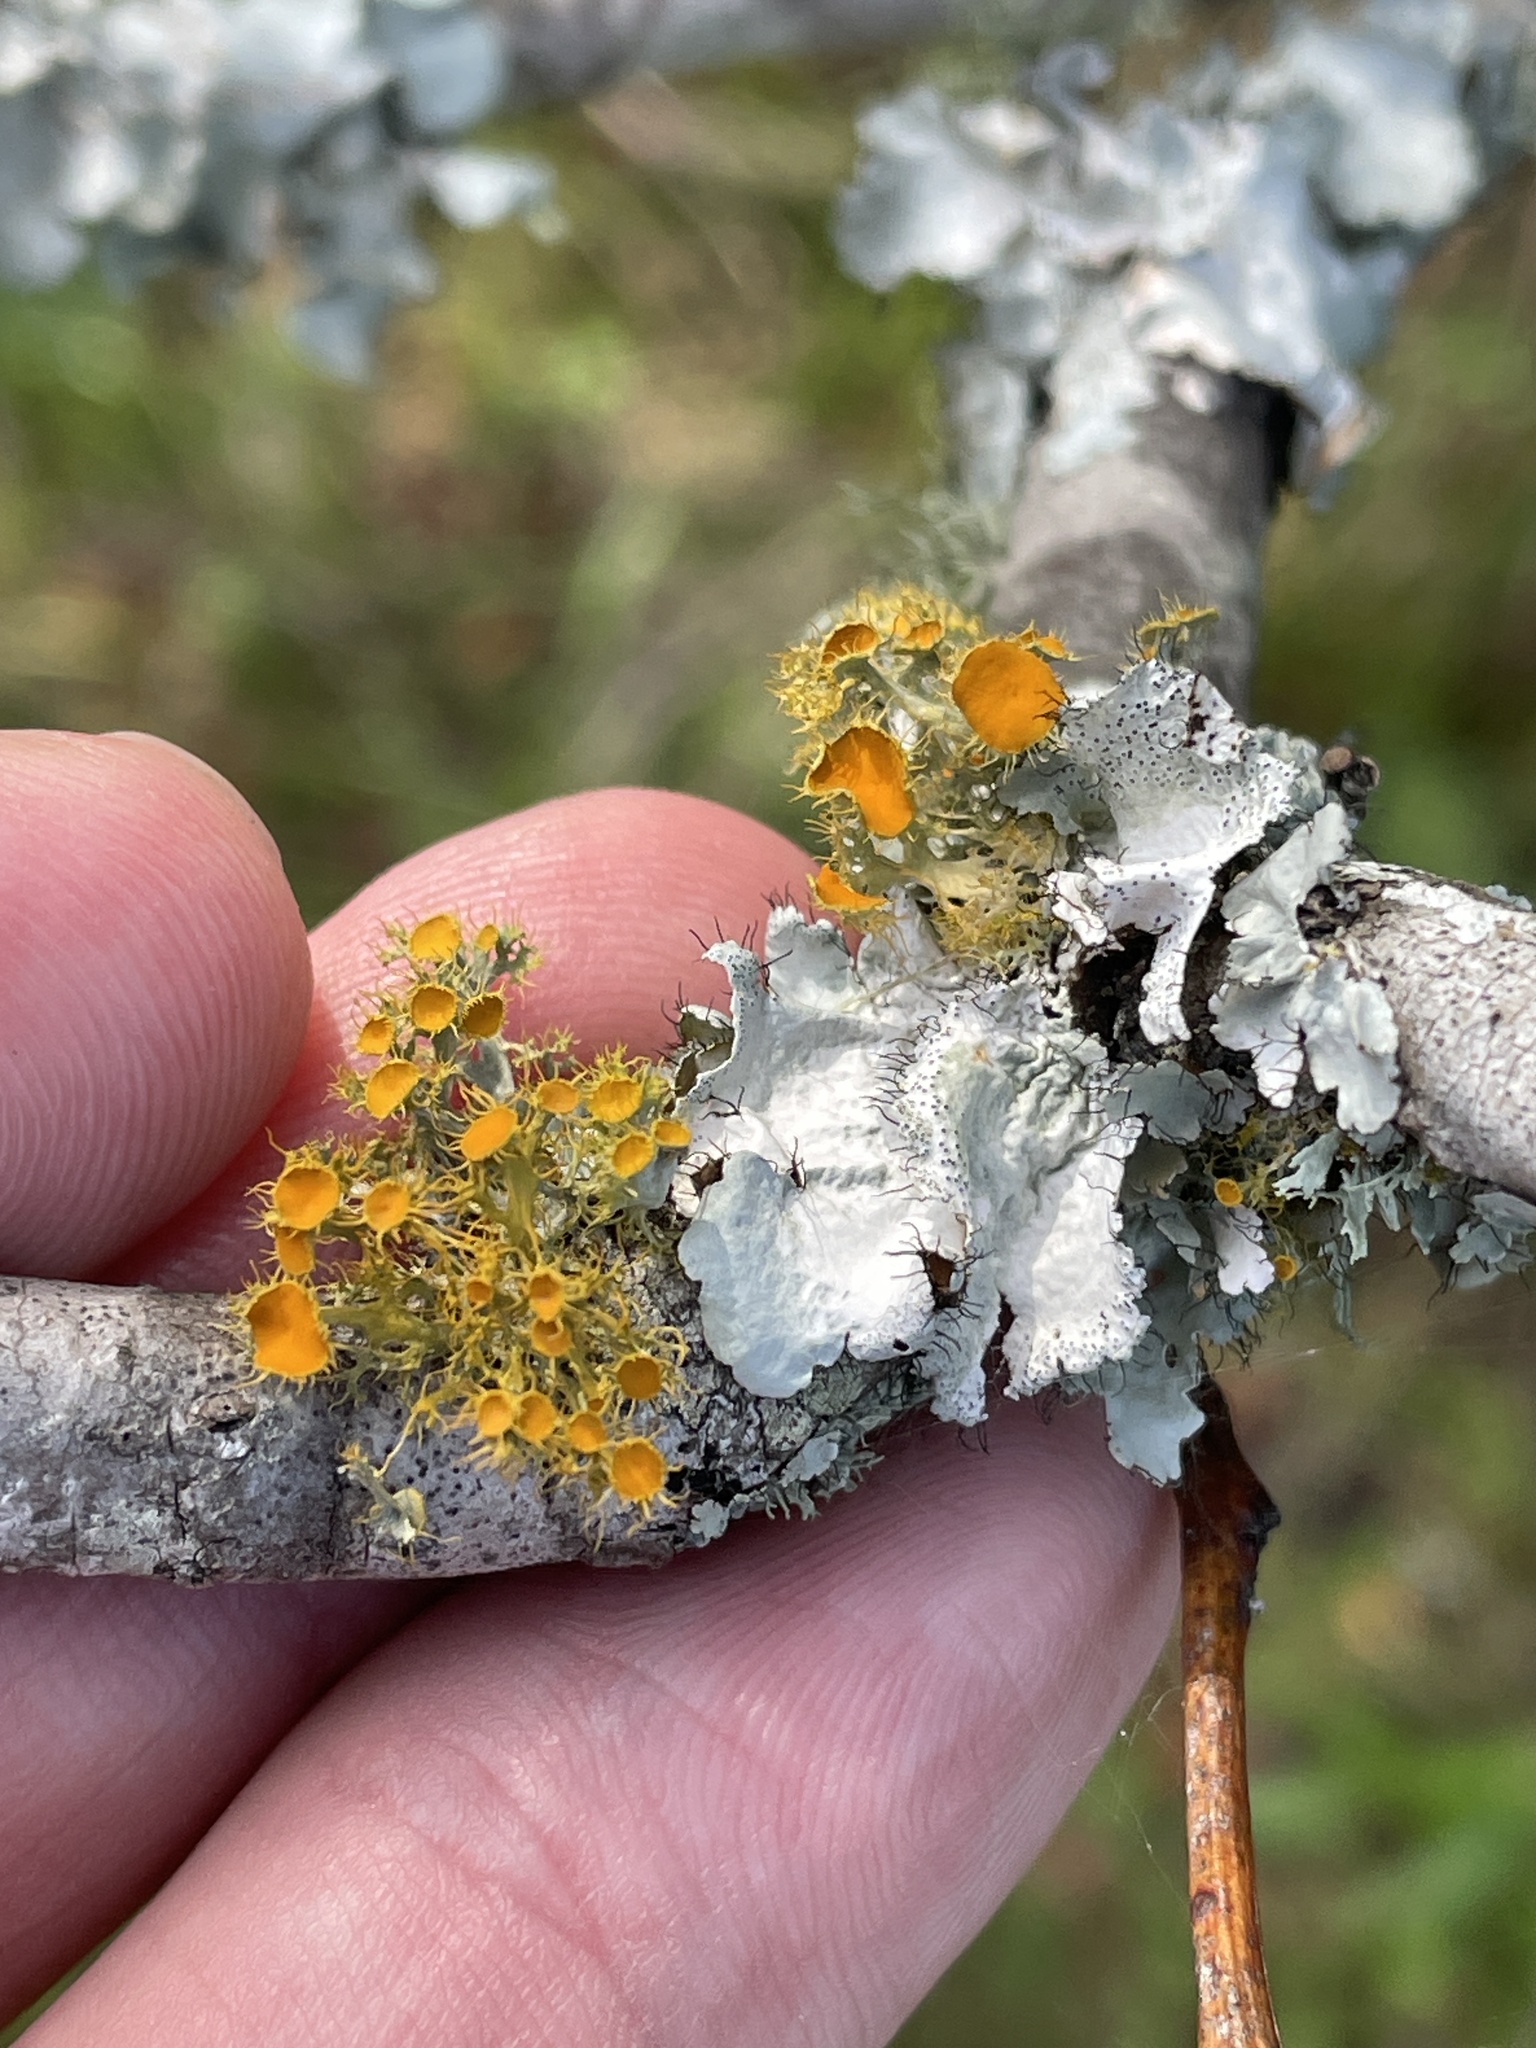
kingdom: Fungi
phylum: Ascomycota
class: Lecanoromycetes
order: Teloschistales
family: Teloschistaceae
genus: Niorma
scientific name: Niorma chrysophthalma
